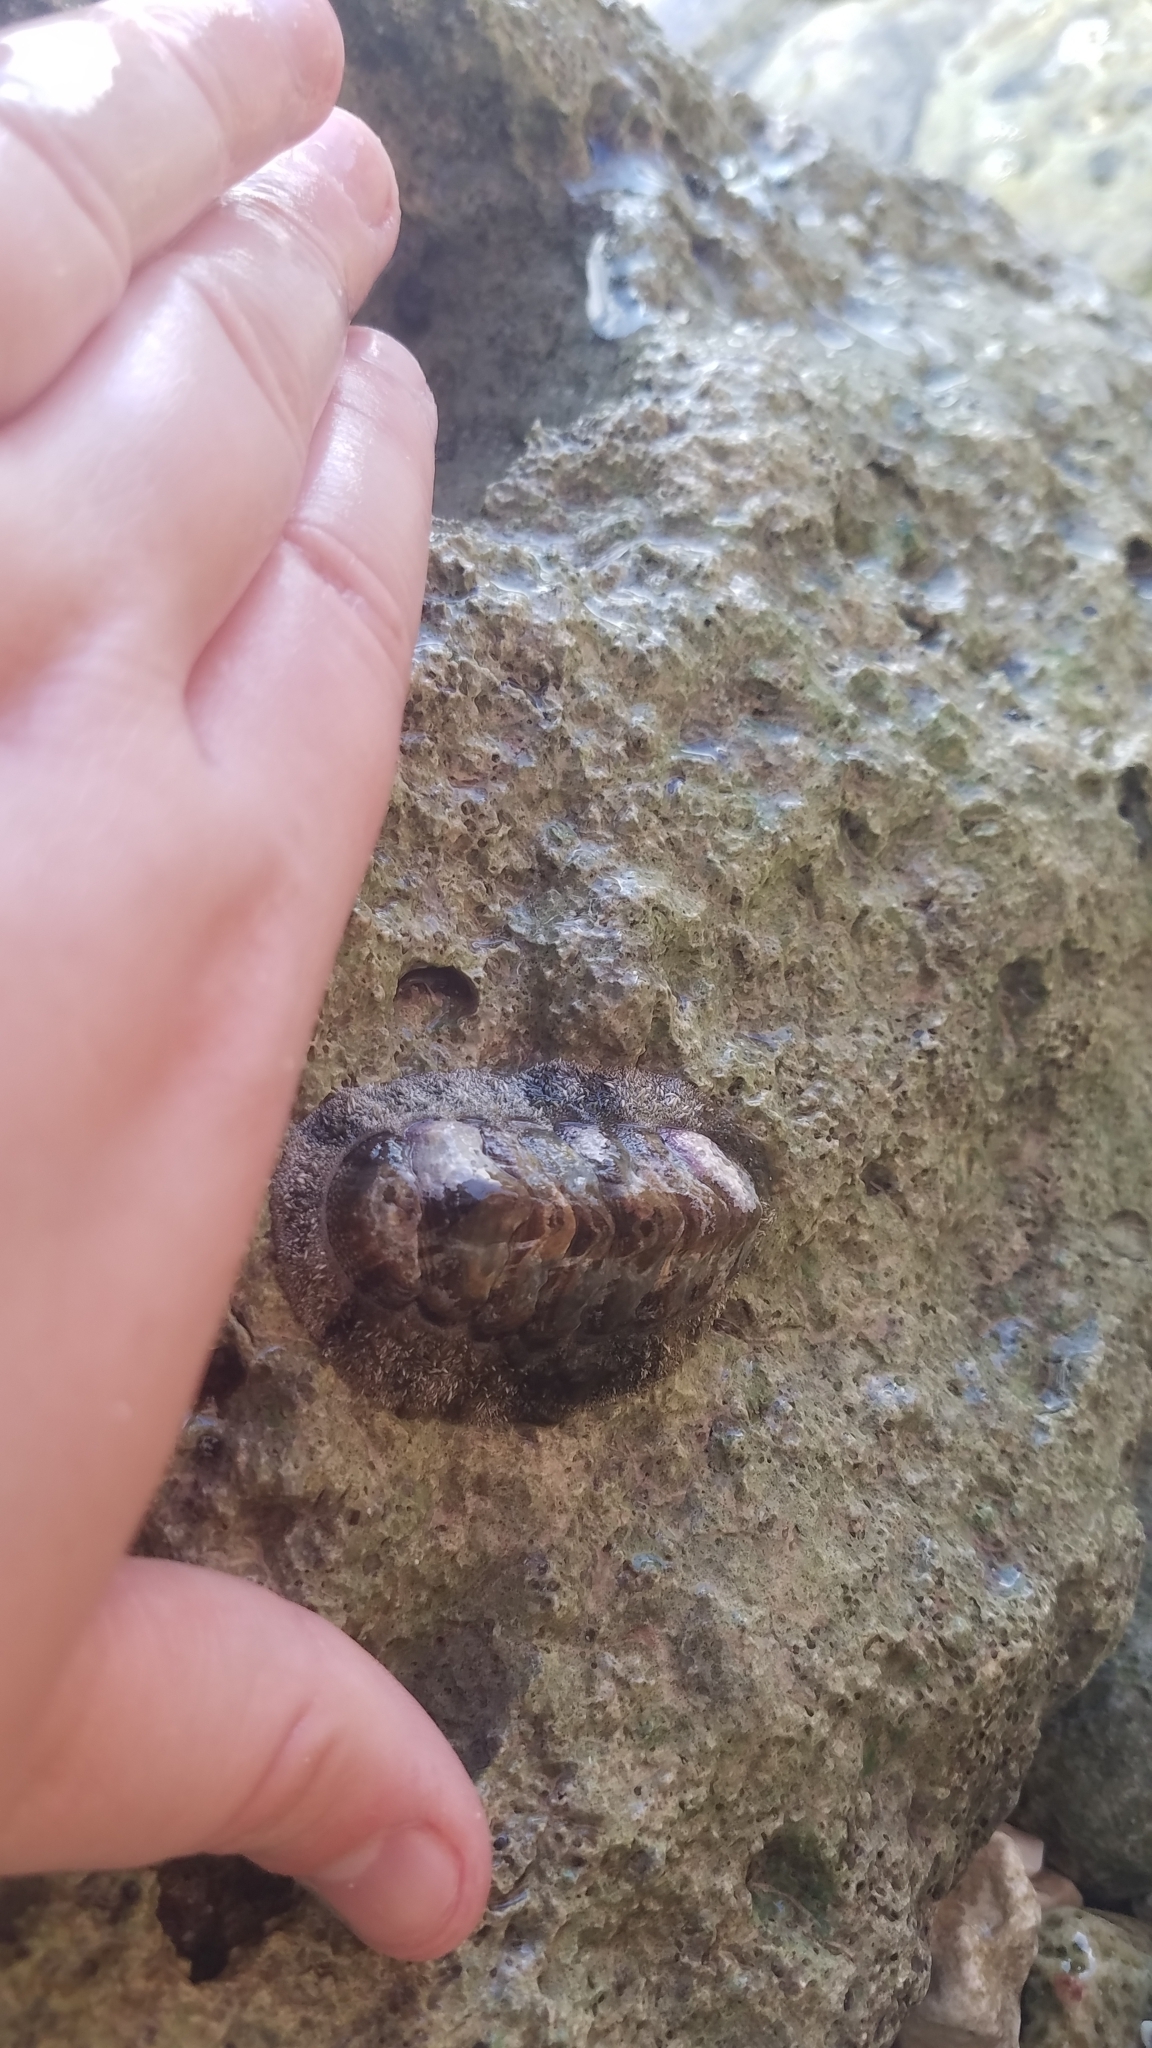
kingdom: Animalia
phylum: Mollusca
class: Polyplacophora
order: Chitonida
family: Chitonidae
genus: Acanthopleura
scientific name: Acanthopleura granulata
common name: West indian fuzzy chiton
